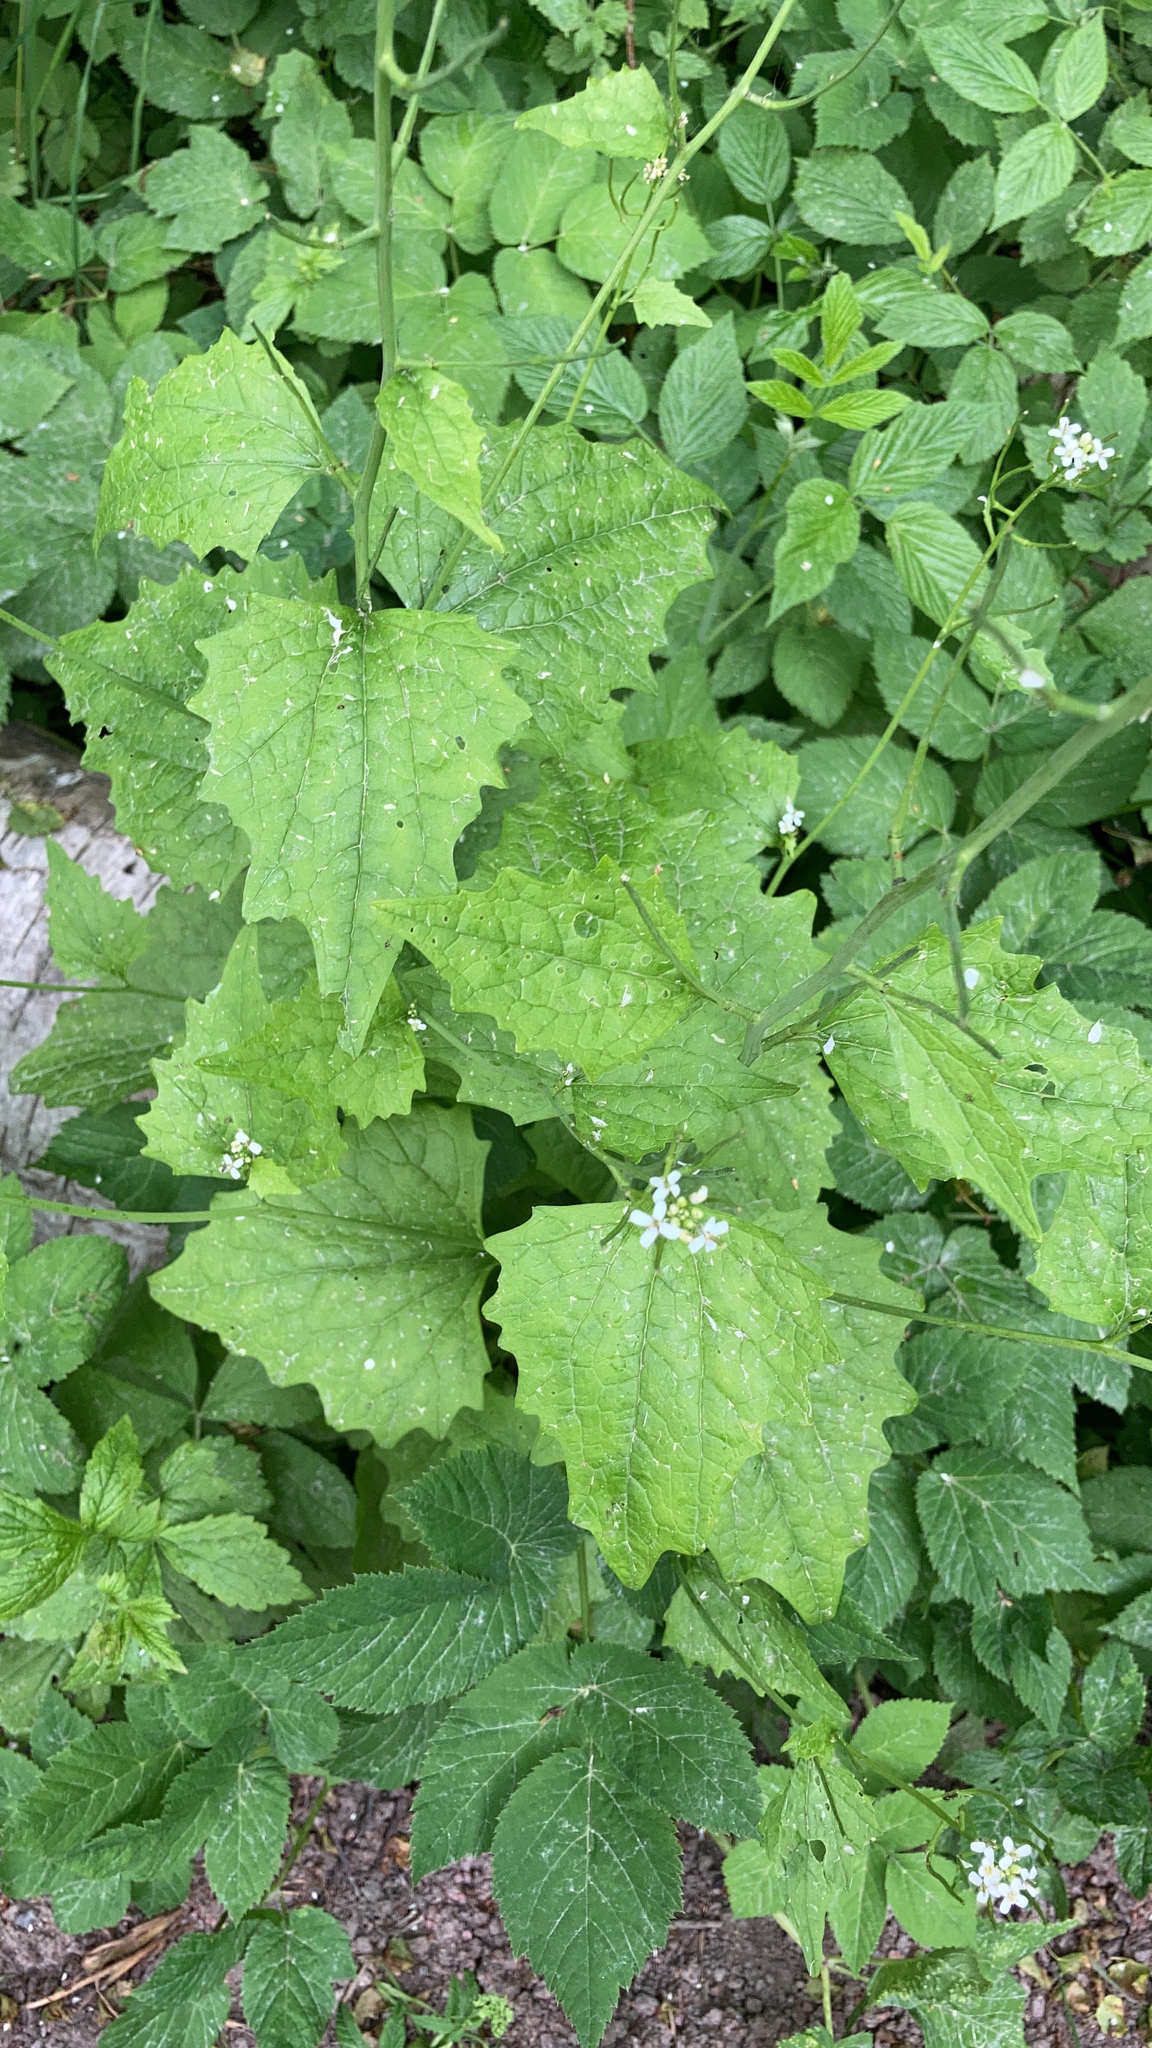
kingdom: Plantae
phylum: Tracheophyta
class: Magnoliopsida
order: Brassicales
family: Brassicaceae
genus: Alliaria
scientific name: Alliaria petiolata
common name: Garlic mustard
